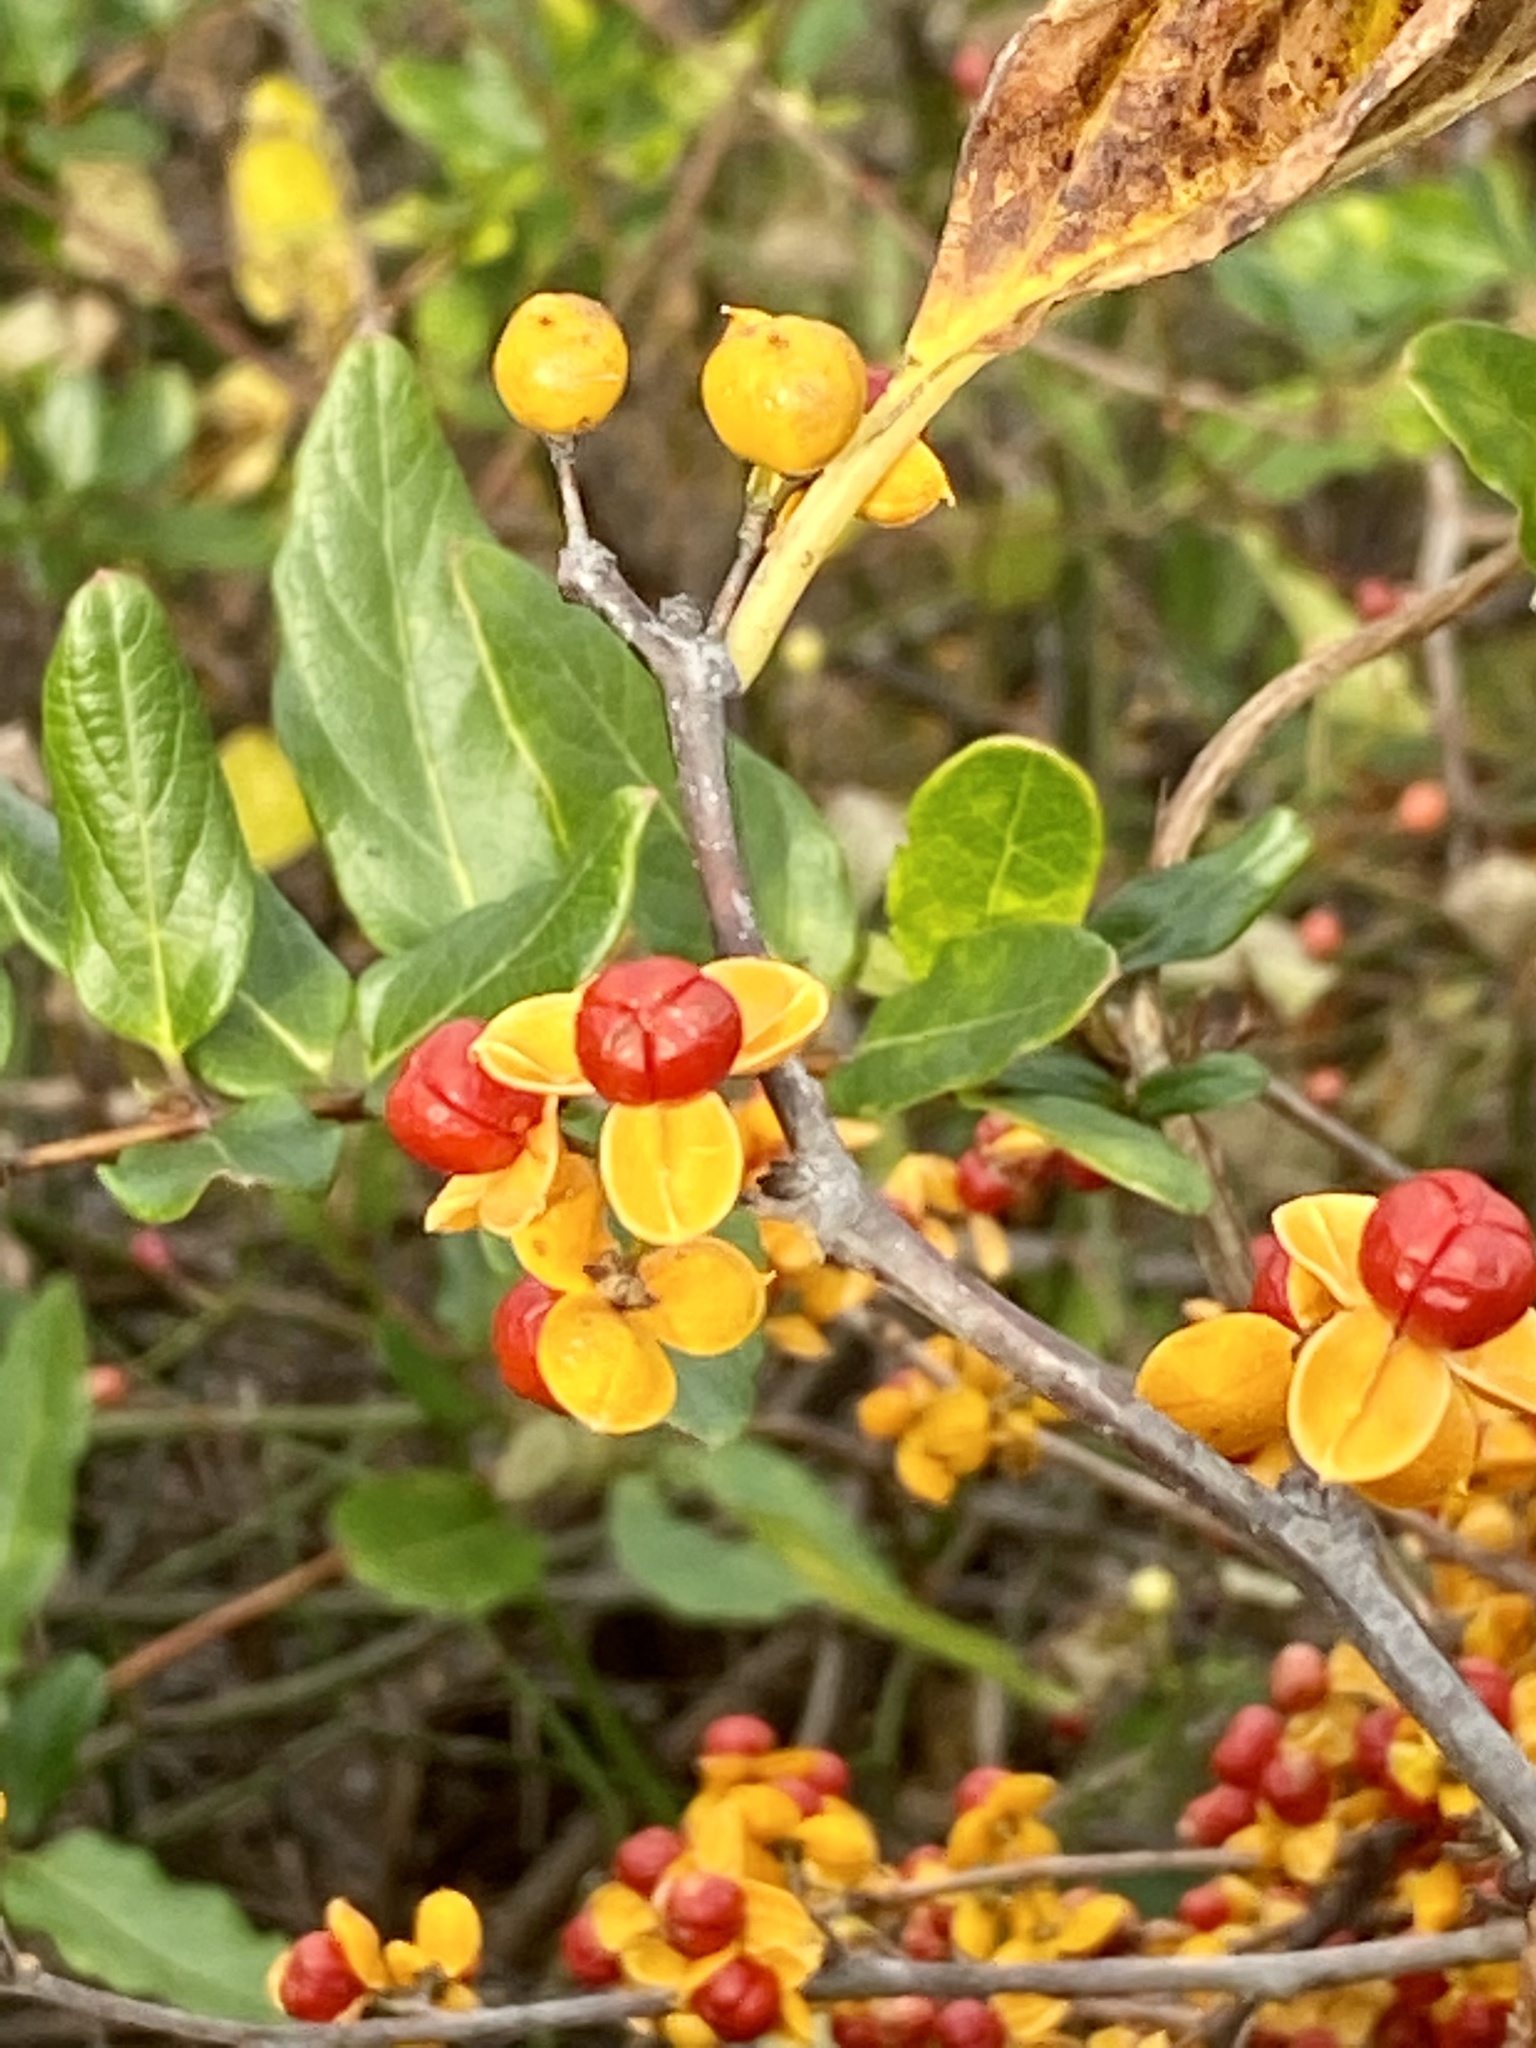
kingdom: Plantae
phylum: Tracheophyta
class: Magnoliopsida
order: Celastrales
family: Celastraceae
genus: Celastrus
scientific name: Celastrus orbiculatus
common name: Oriental bittersweet
